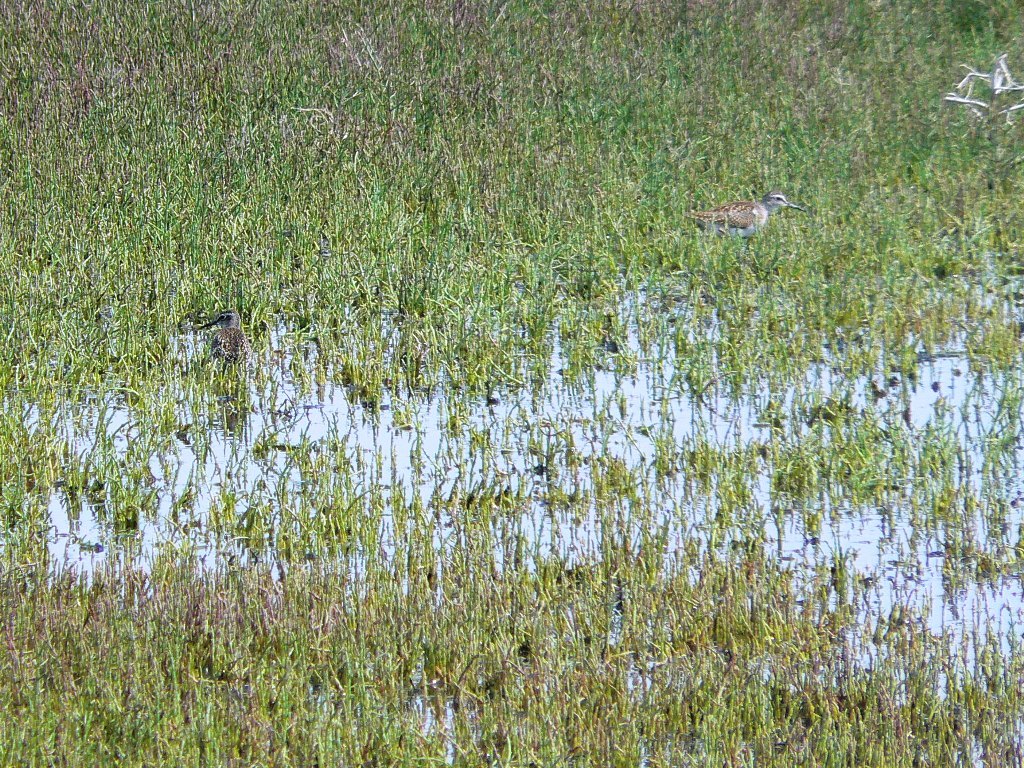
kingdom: Animalia
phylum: Chordata
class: Aves
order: Charadriiformes
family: Scolopacidae
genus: Tringa
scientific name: Tringa glareola
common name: Wood sandpiper
